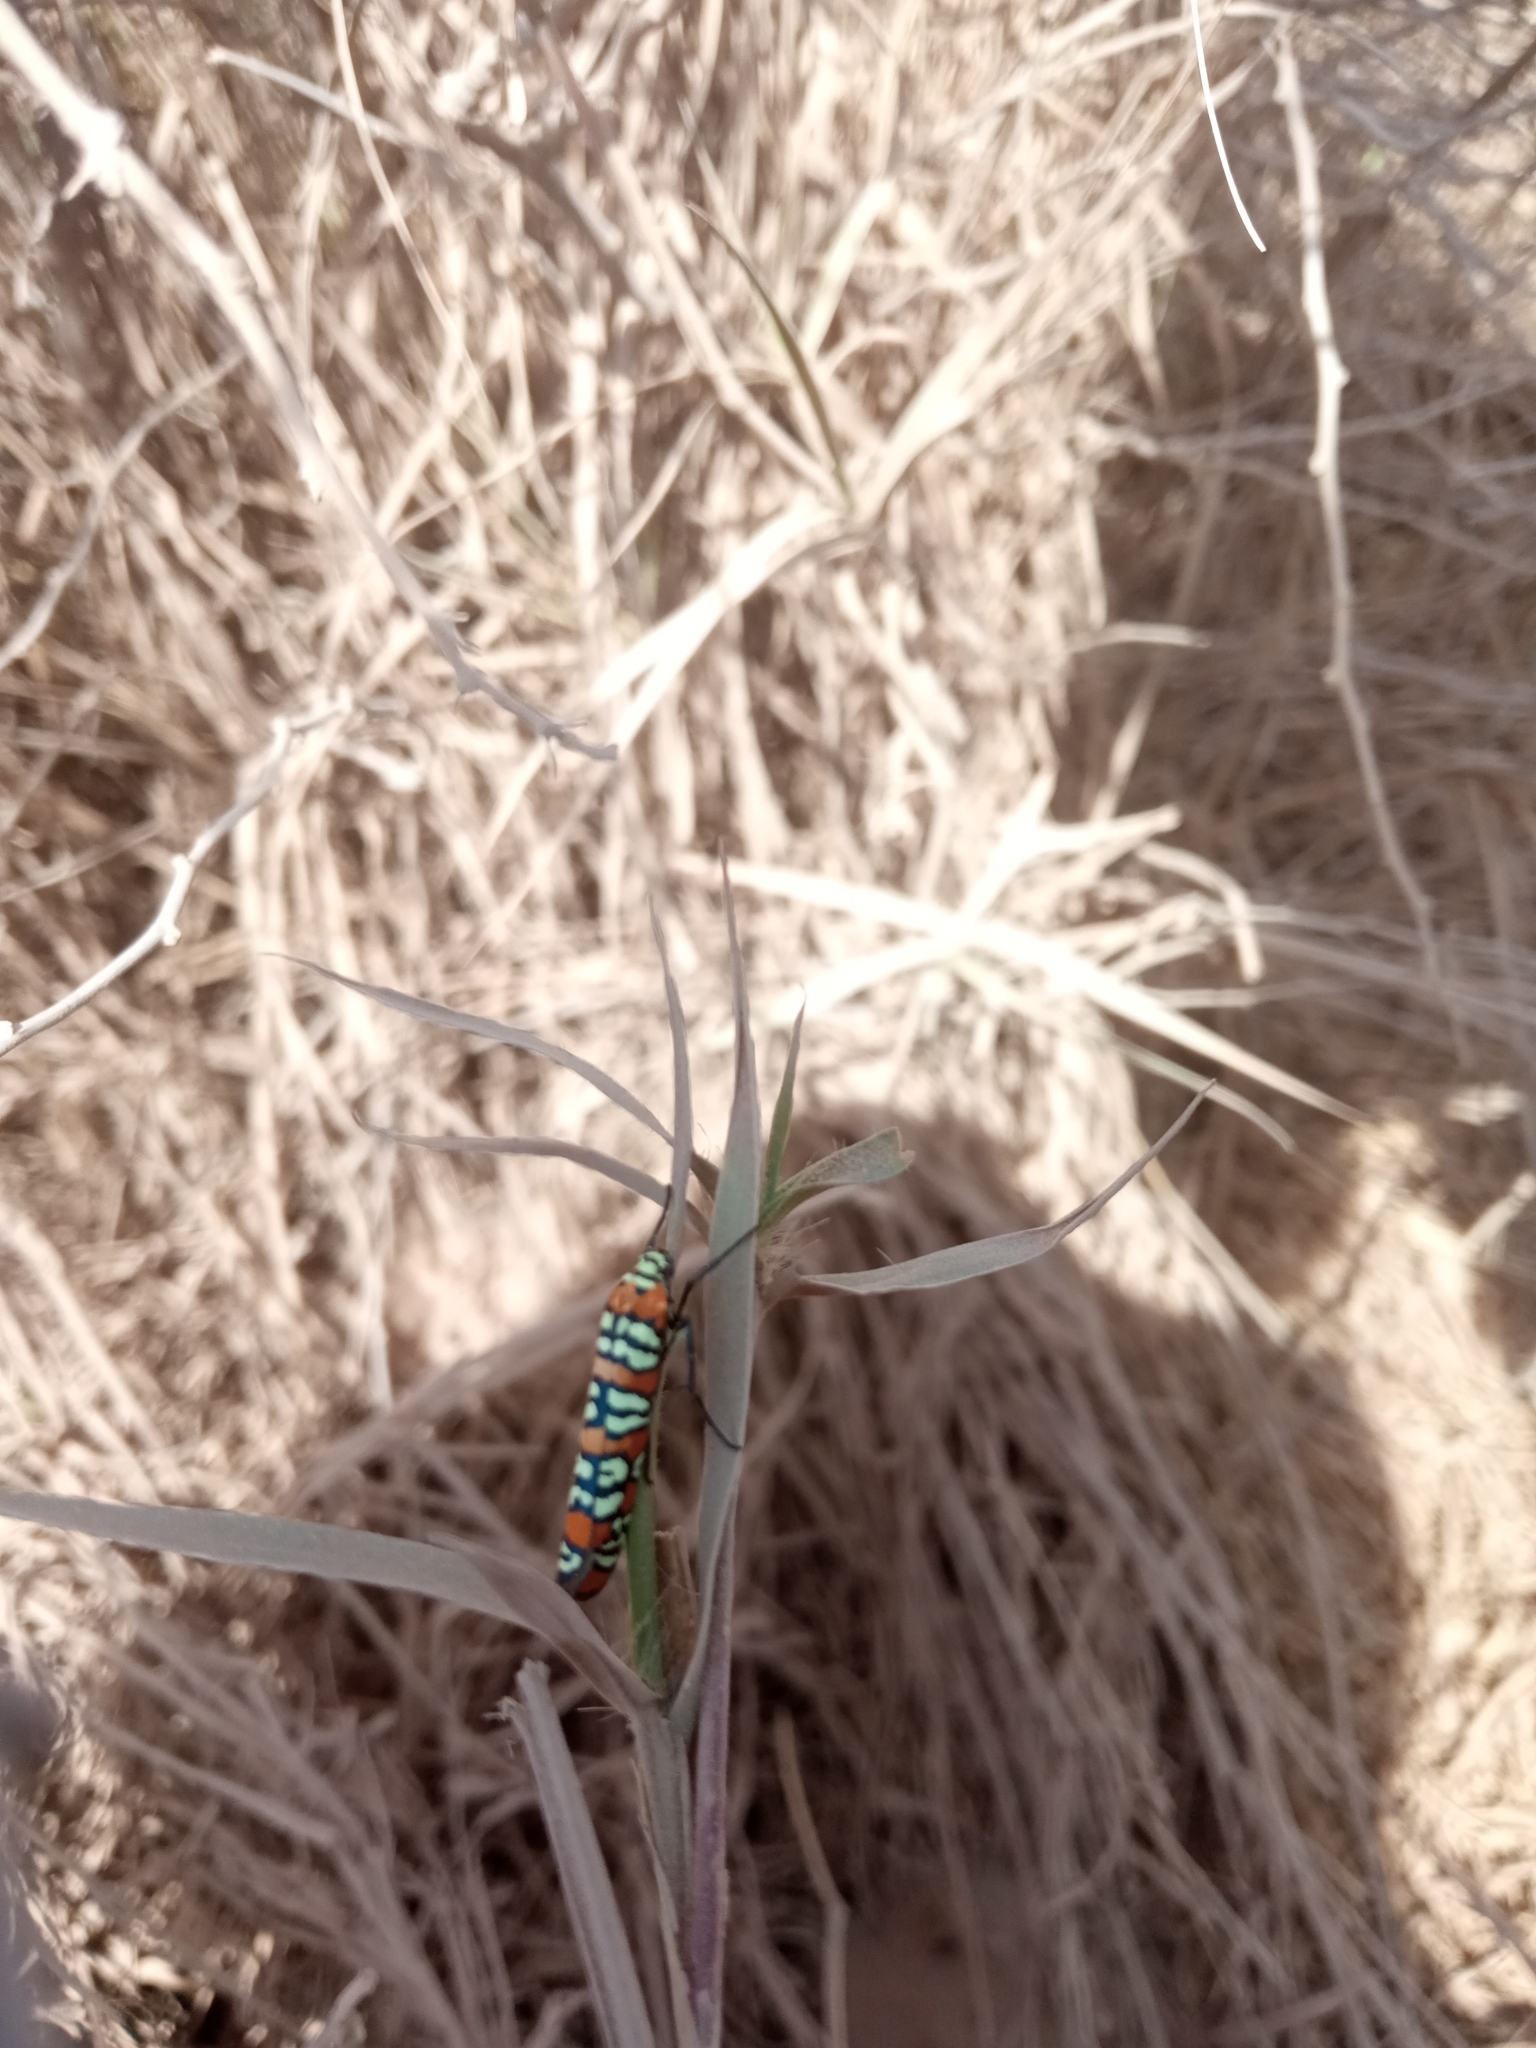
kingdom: Animalia
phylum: Arthropoda
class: Insecta
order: Lepidoptera
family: Attevidae
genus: Atteva
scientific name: Atteva punctella
